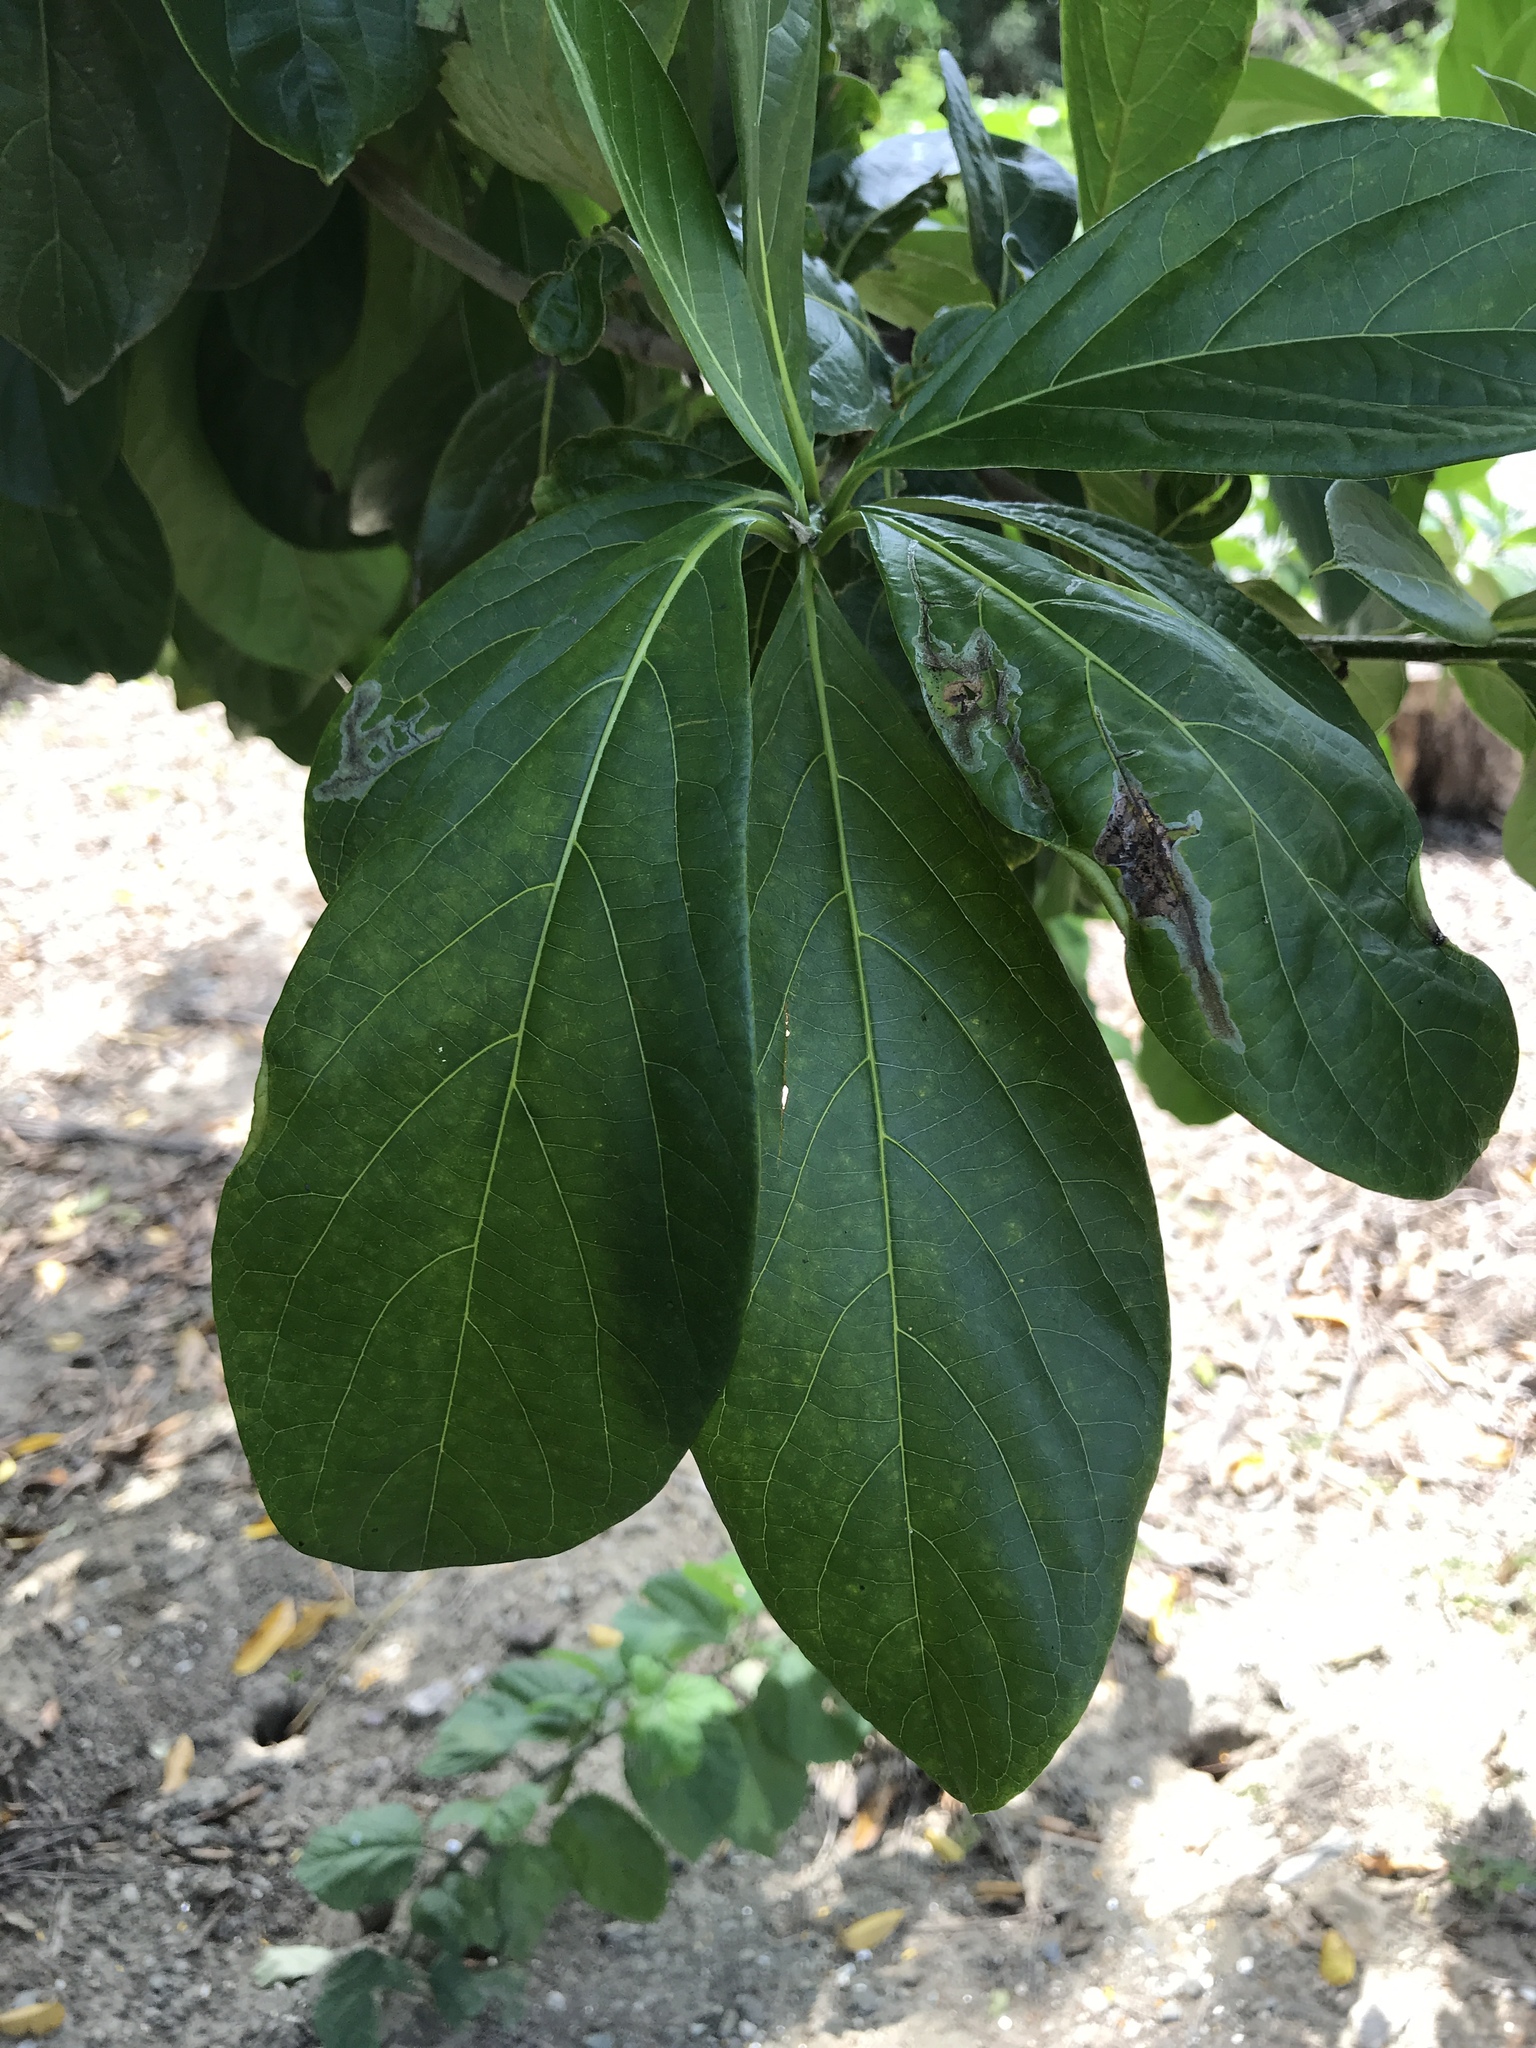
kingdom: Plantae
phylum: Tracheophyta
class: Magnoliopsida
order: Myrtales
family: Combretaceae
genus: Terminalia
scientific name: Terminalia catappa
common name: Tropical almond
